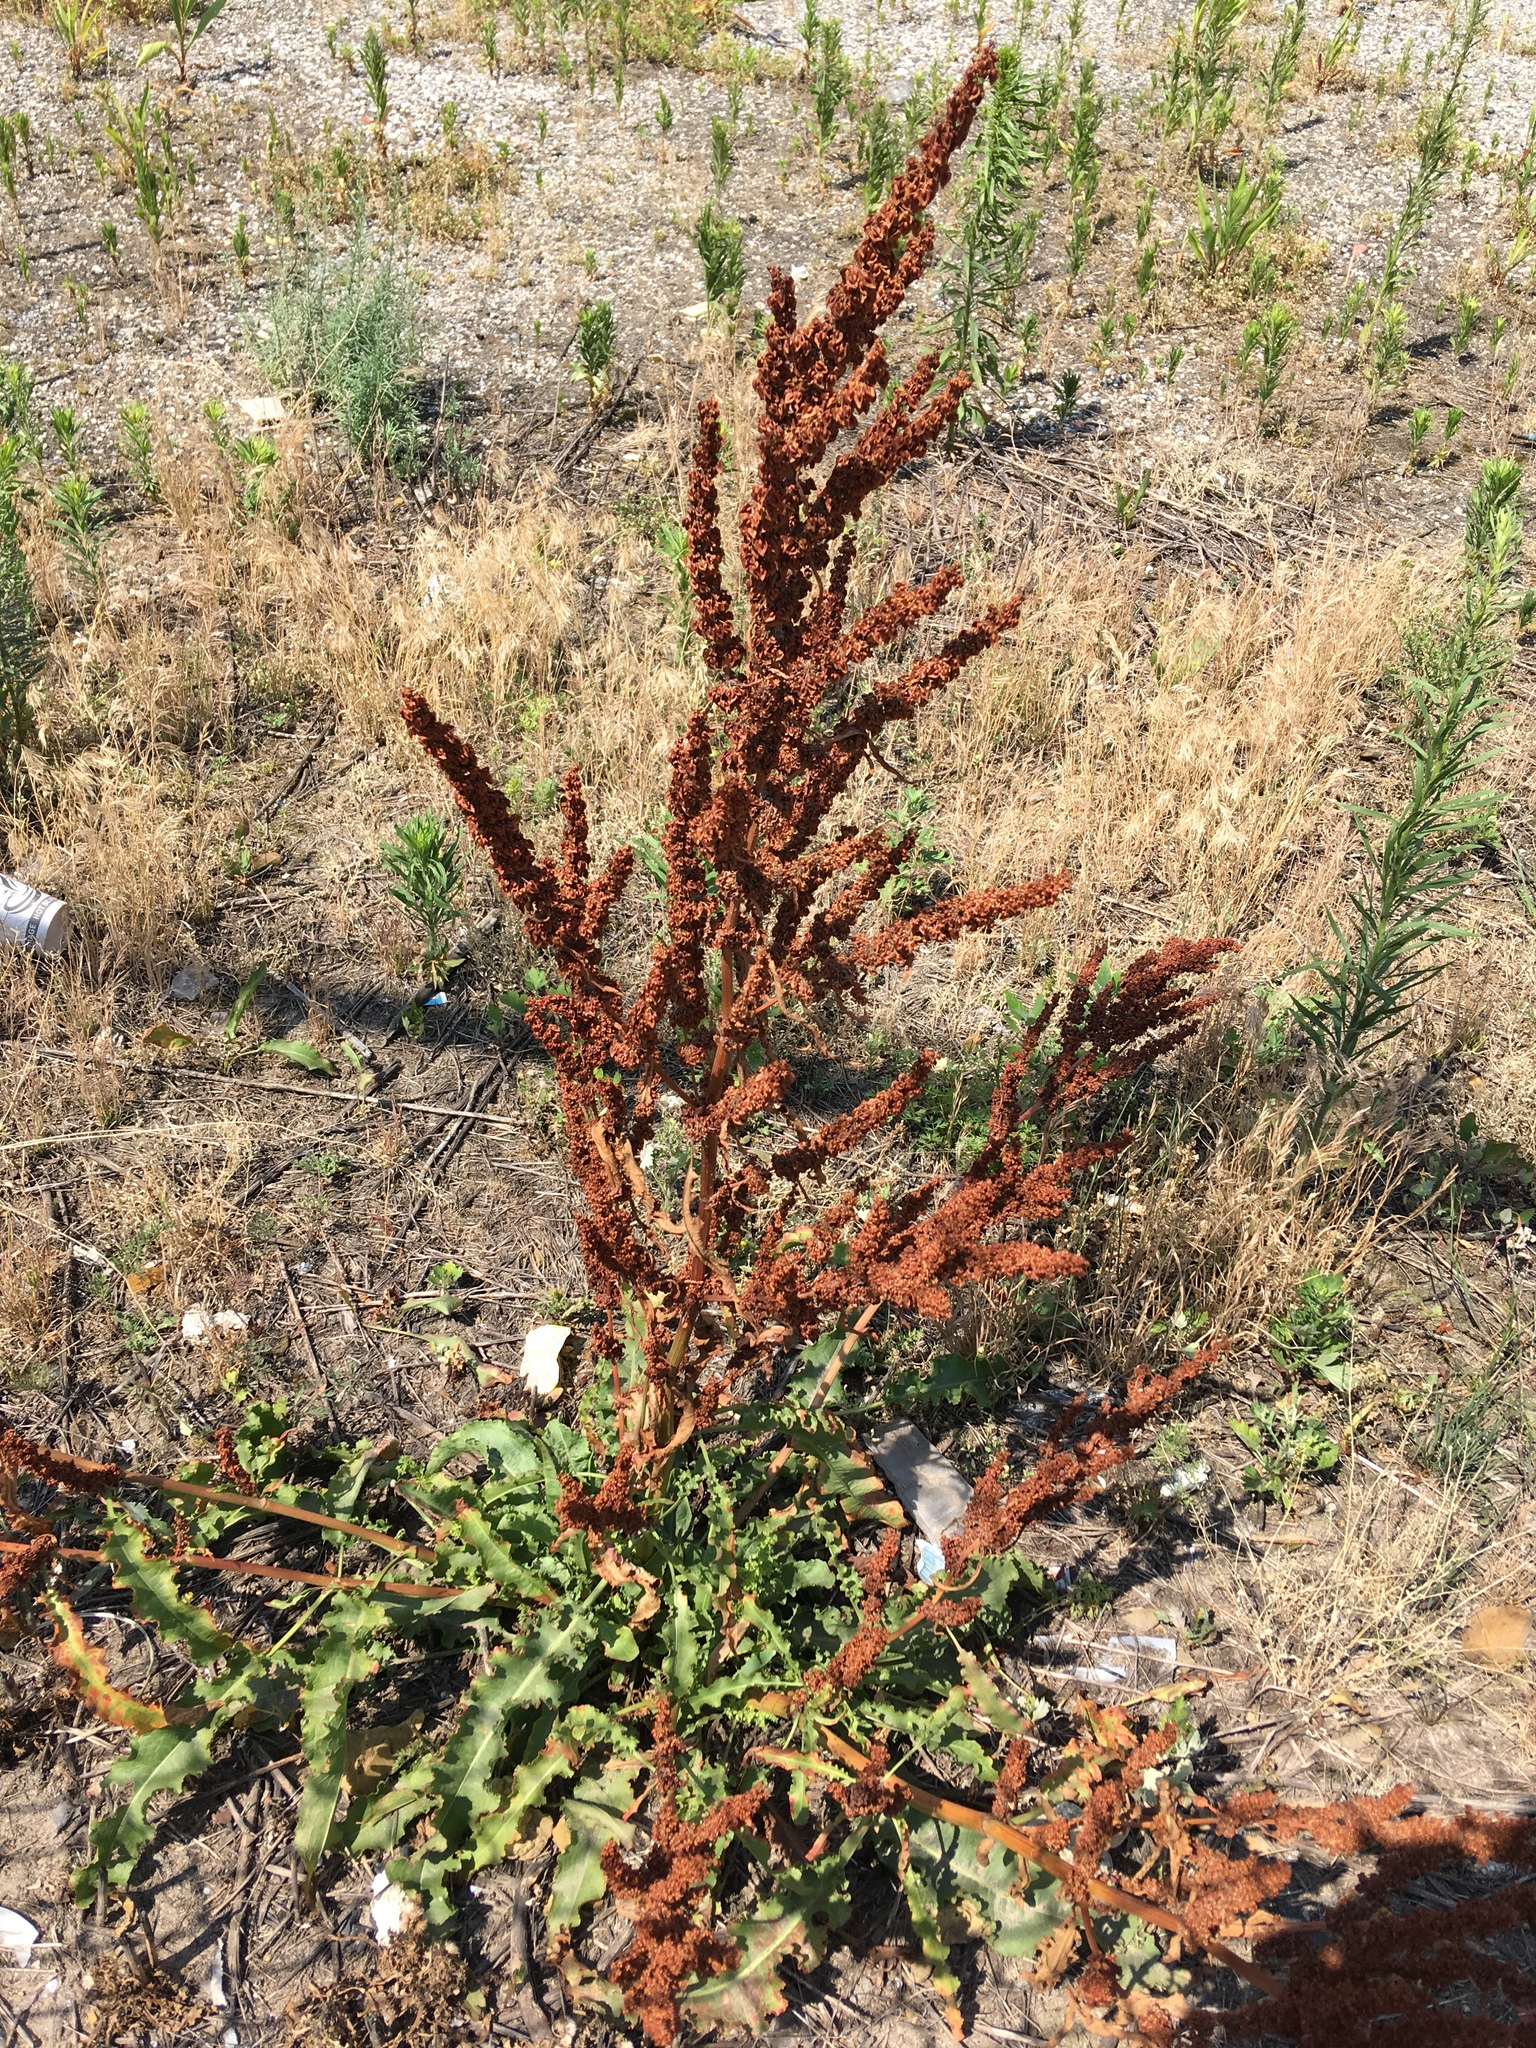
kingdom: Plantae
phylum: Tracheophyta
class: Magnoliopsida
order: Caryophyllales
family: Polygonaceae
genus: Rumex
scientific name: Rumex crispus
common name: Curled dock
